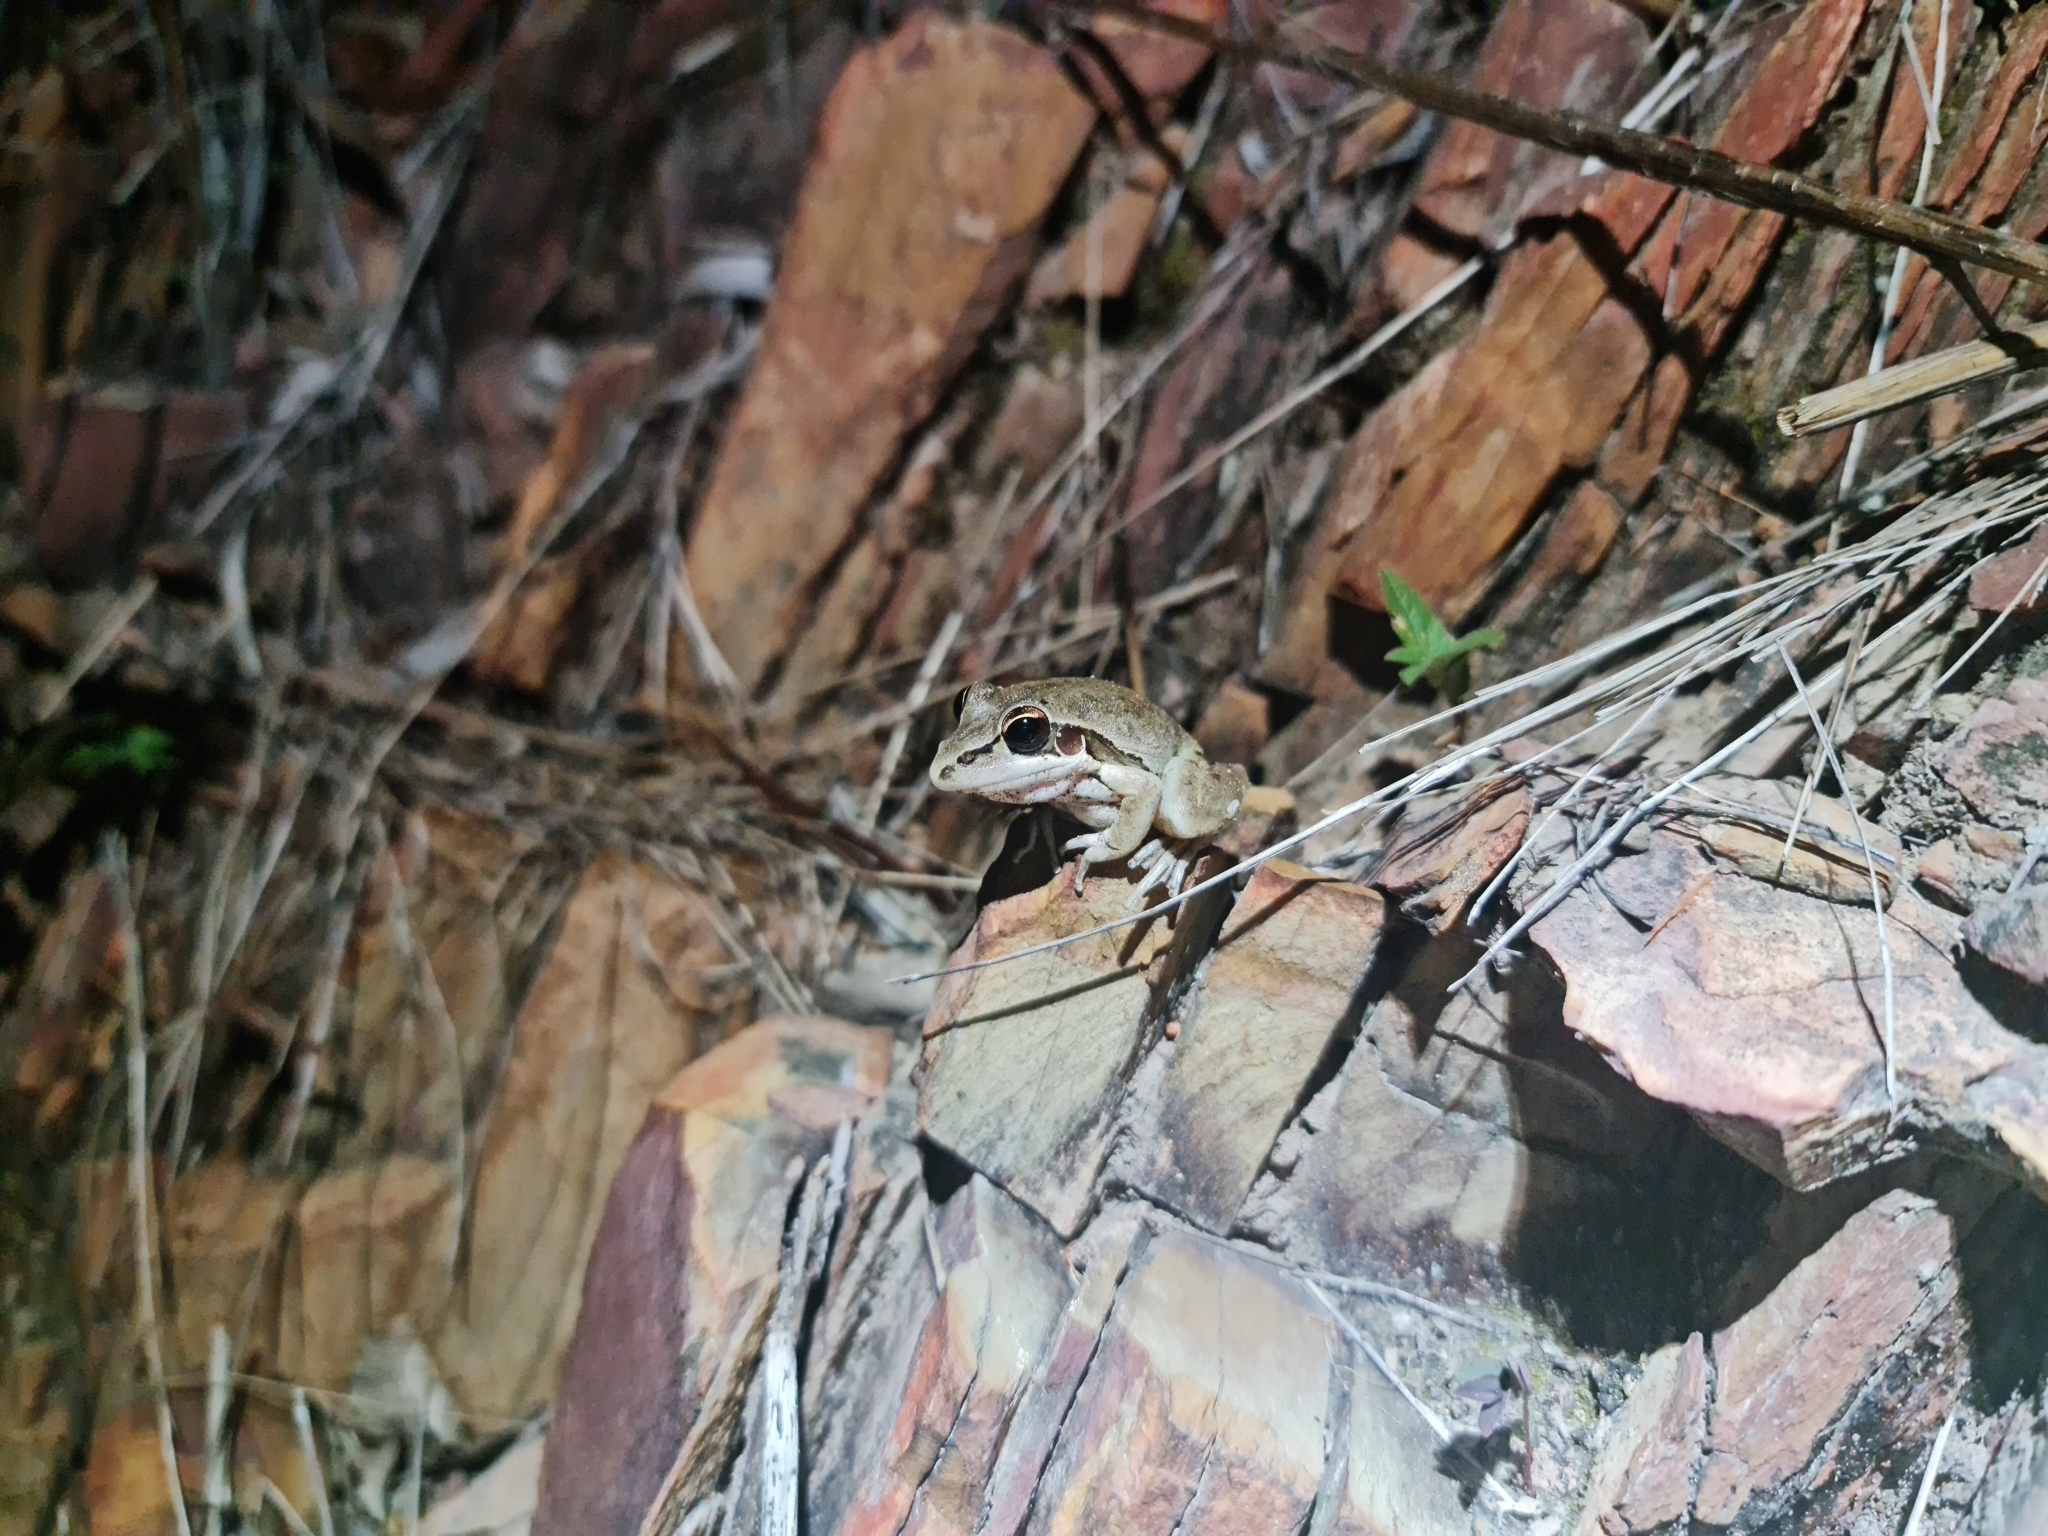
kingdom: Animalia
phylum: Chordata
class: Amphibia
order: Anura
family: Pelodryadidae
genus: Litoria
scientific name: Litoria watjulumensis
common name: Wotjulum frog
